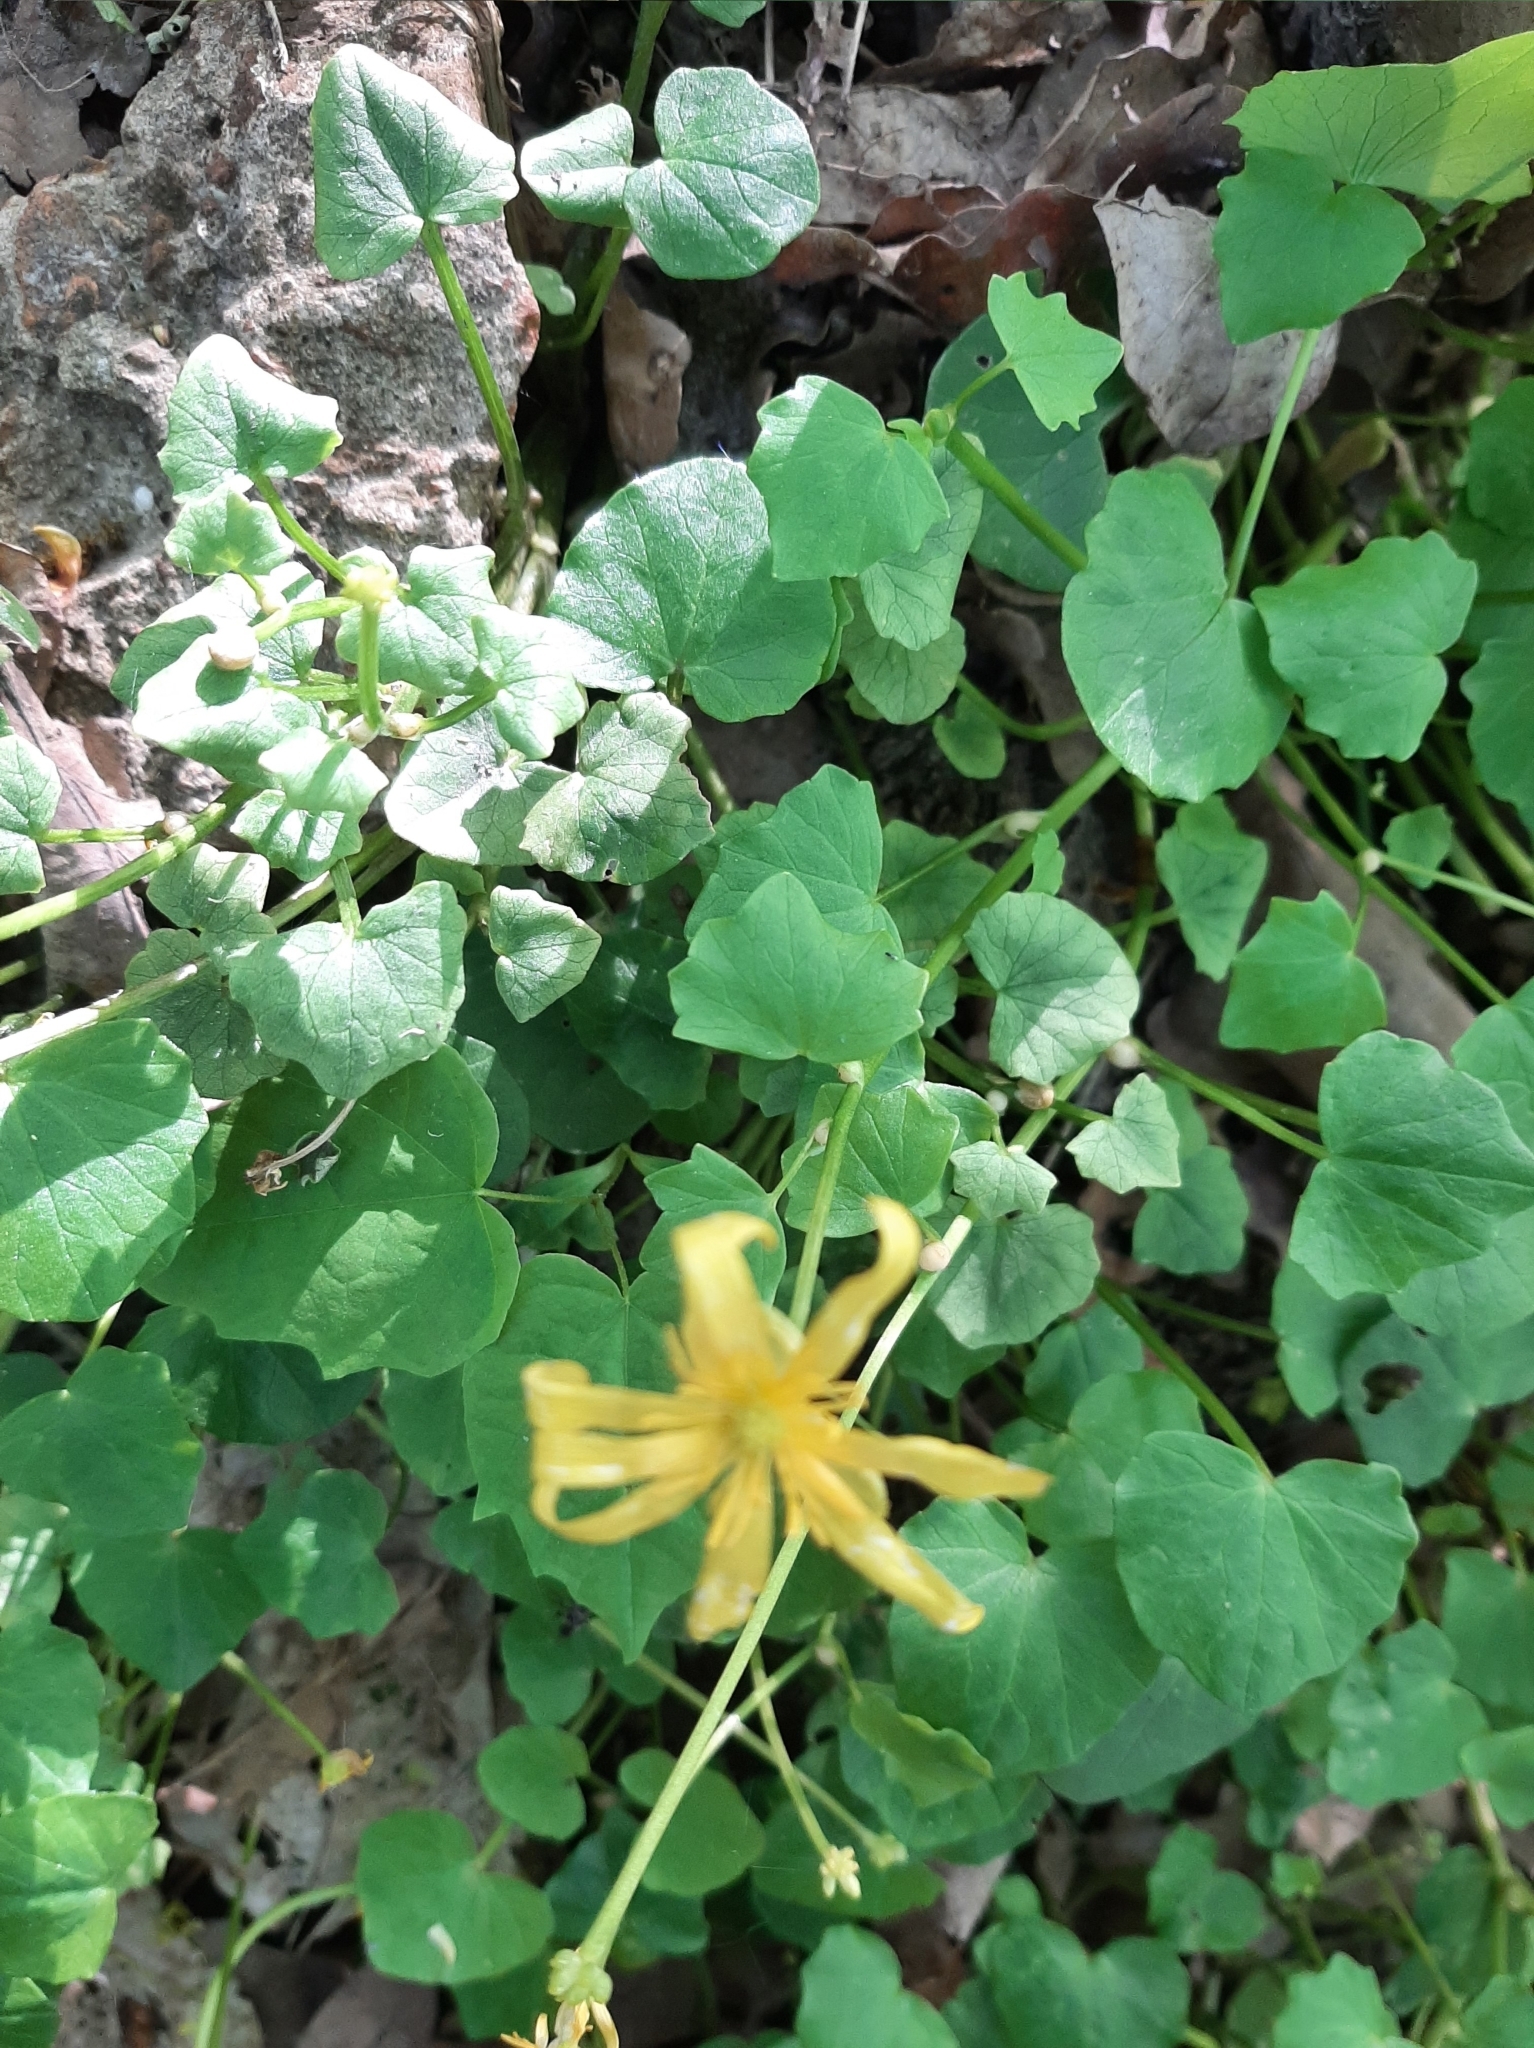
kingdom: Plantae
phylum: Tracheophyta
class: Magnoliopsida
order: Ranunculales
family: Ranunculaceae
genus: Ficaria
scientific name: Ficaria verna
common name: Lesser celandine
